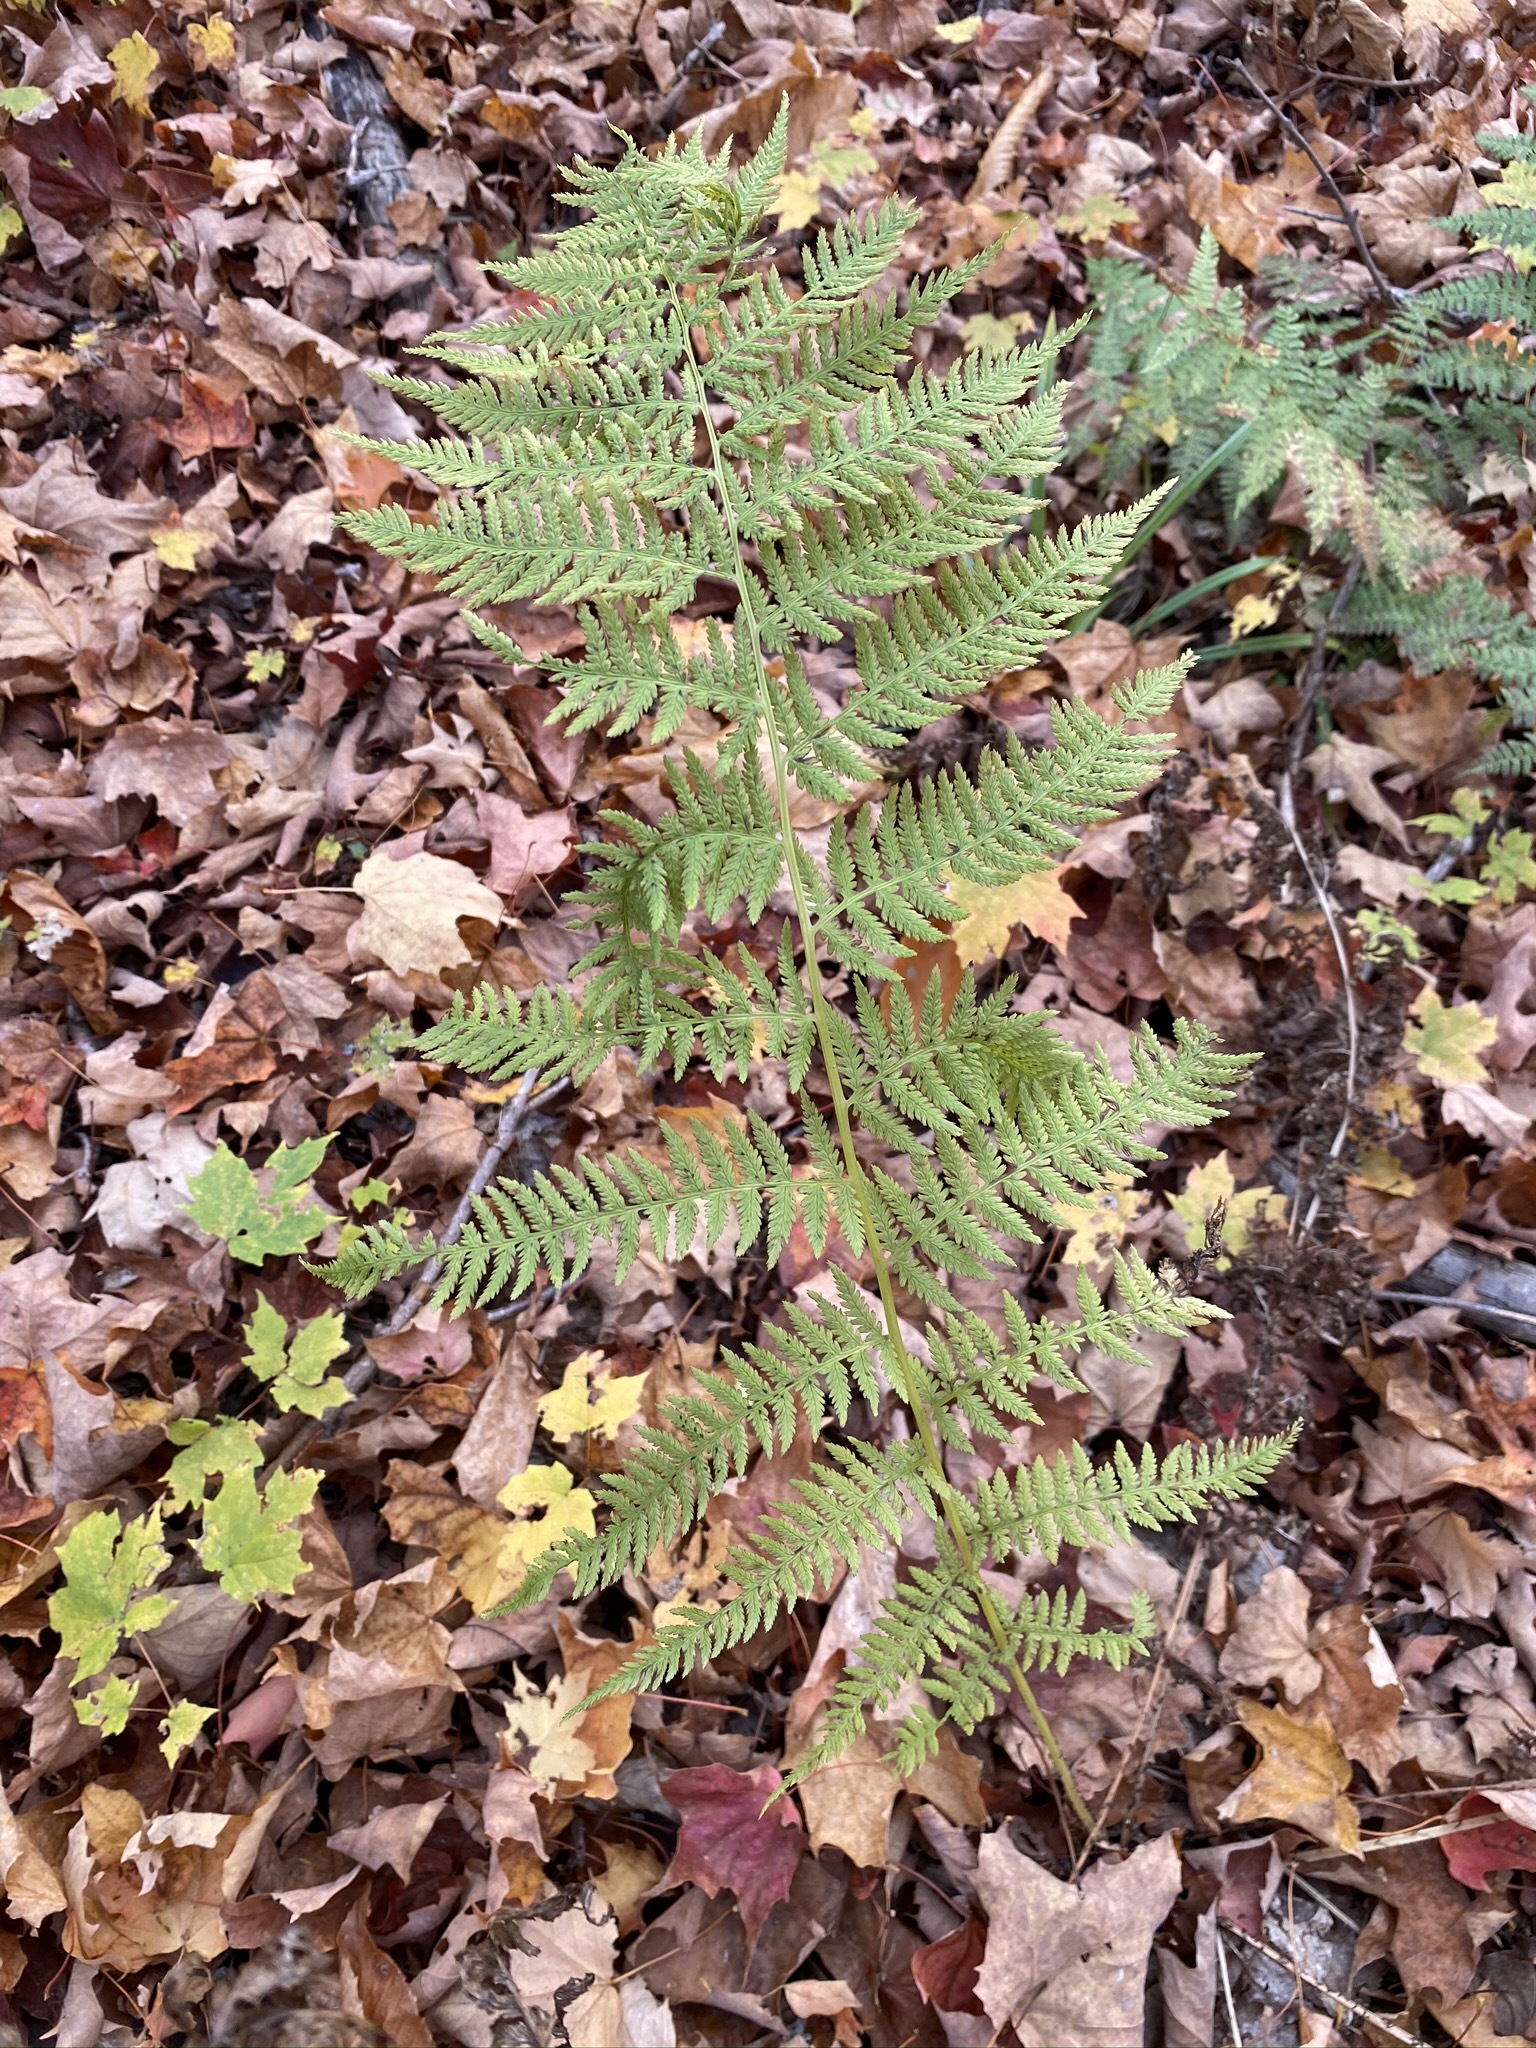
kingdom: Plantae
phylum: Tracheophyta
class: Polypodiopsida
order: Polypodiales
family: Athyriaceae
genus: Athyrium
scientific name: Athyrium angustum
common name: Northern lady fern
